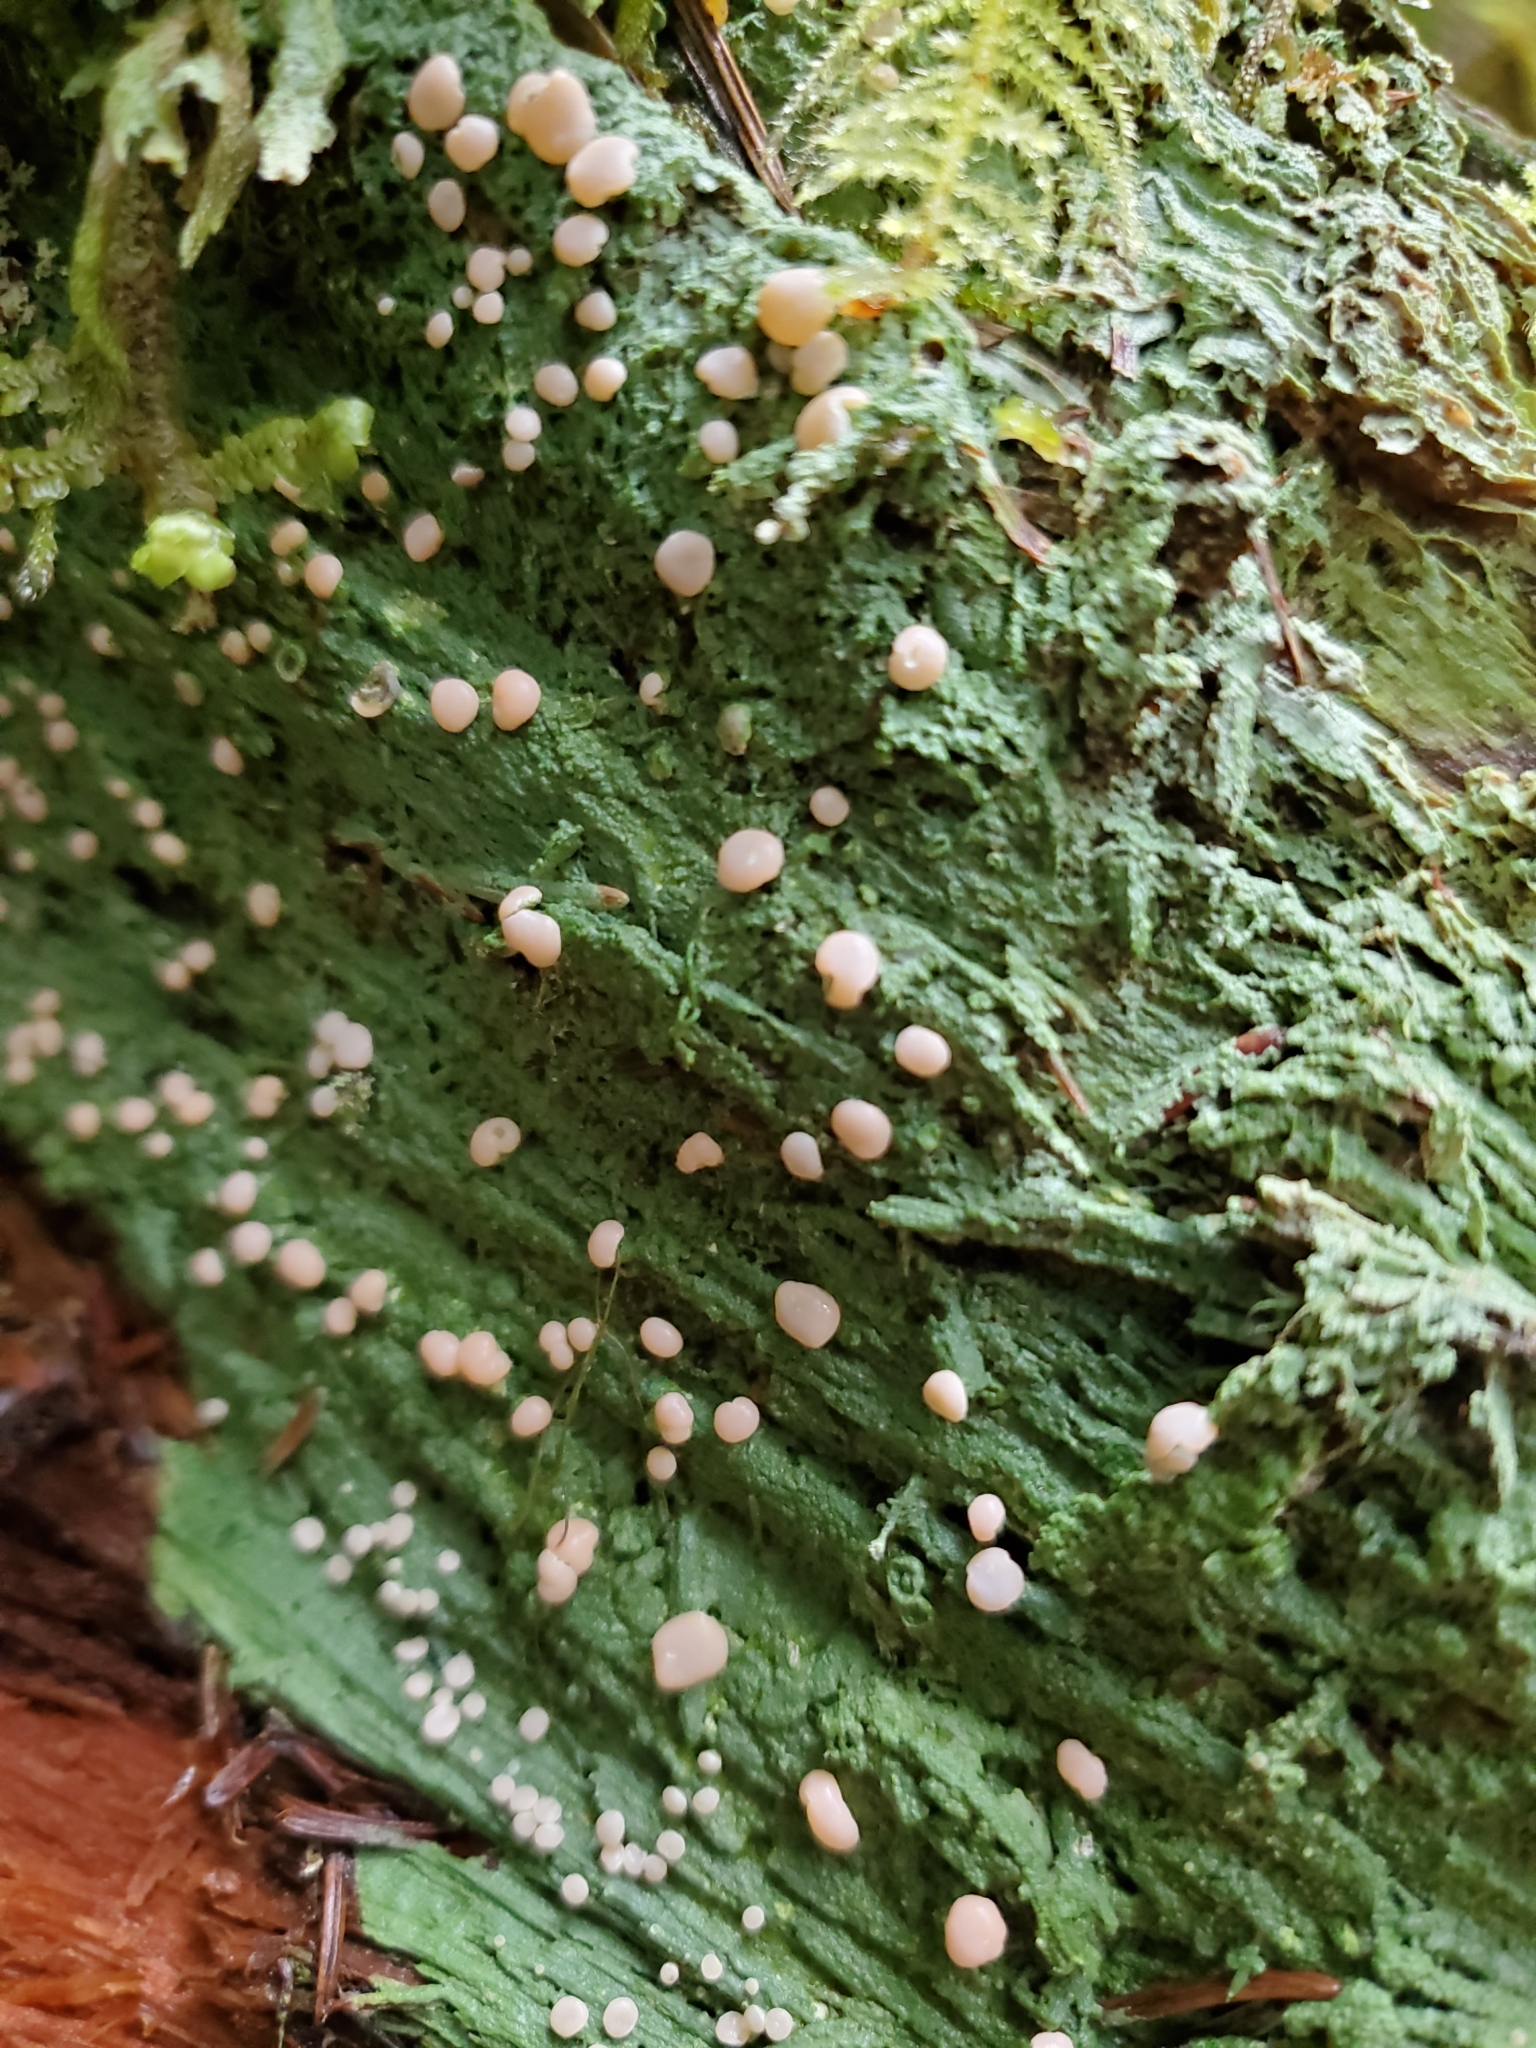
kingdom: Fungi
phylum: Ascomycota
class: Lecanoromycetes
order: Pertusariales
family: Icmadophilaceae
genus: Icmadophila
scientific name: Icmadophila ericetorum
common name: Candy lichen
